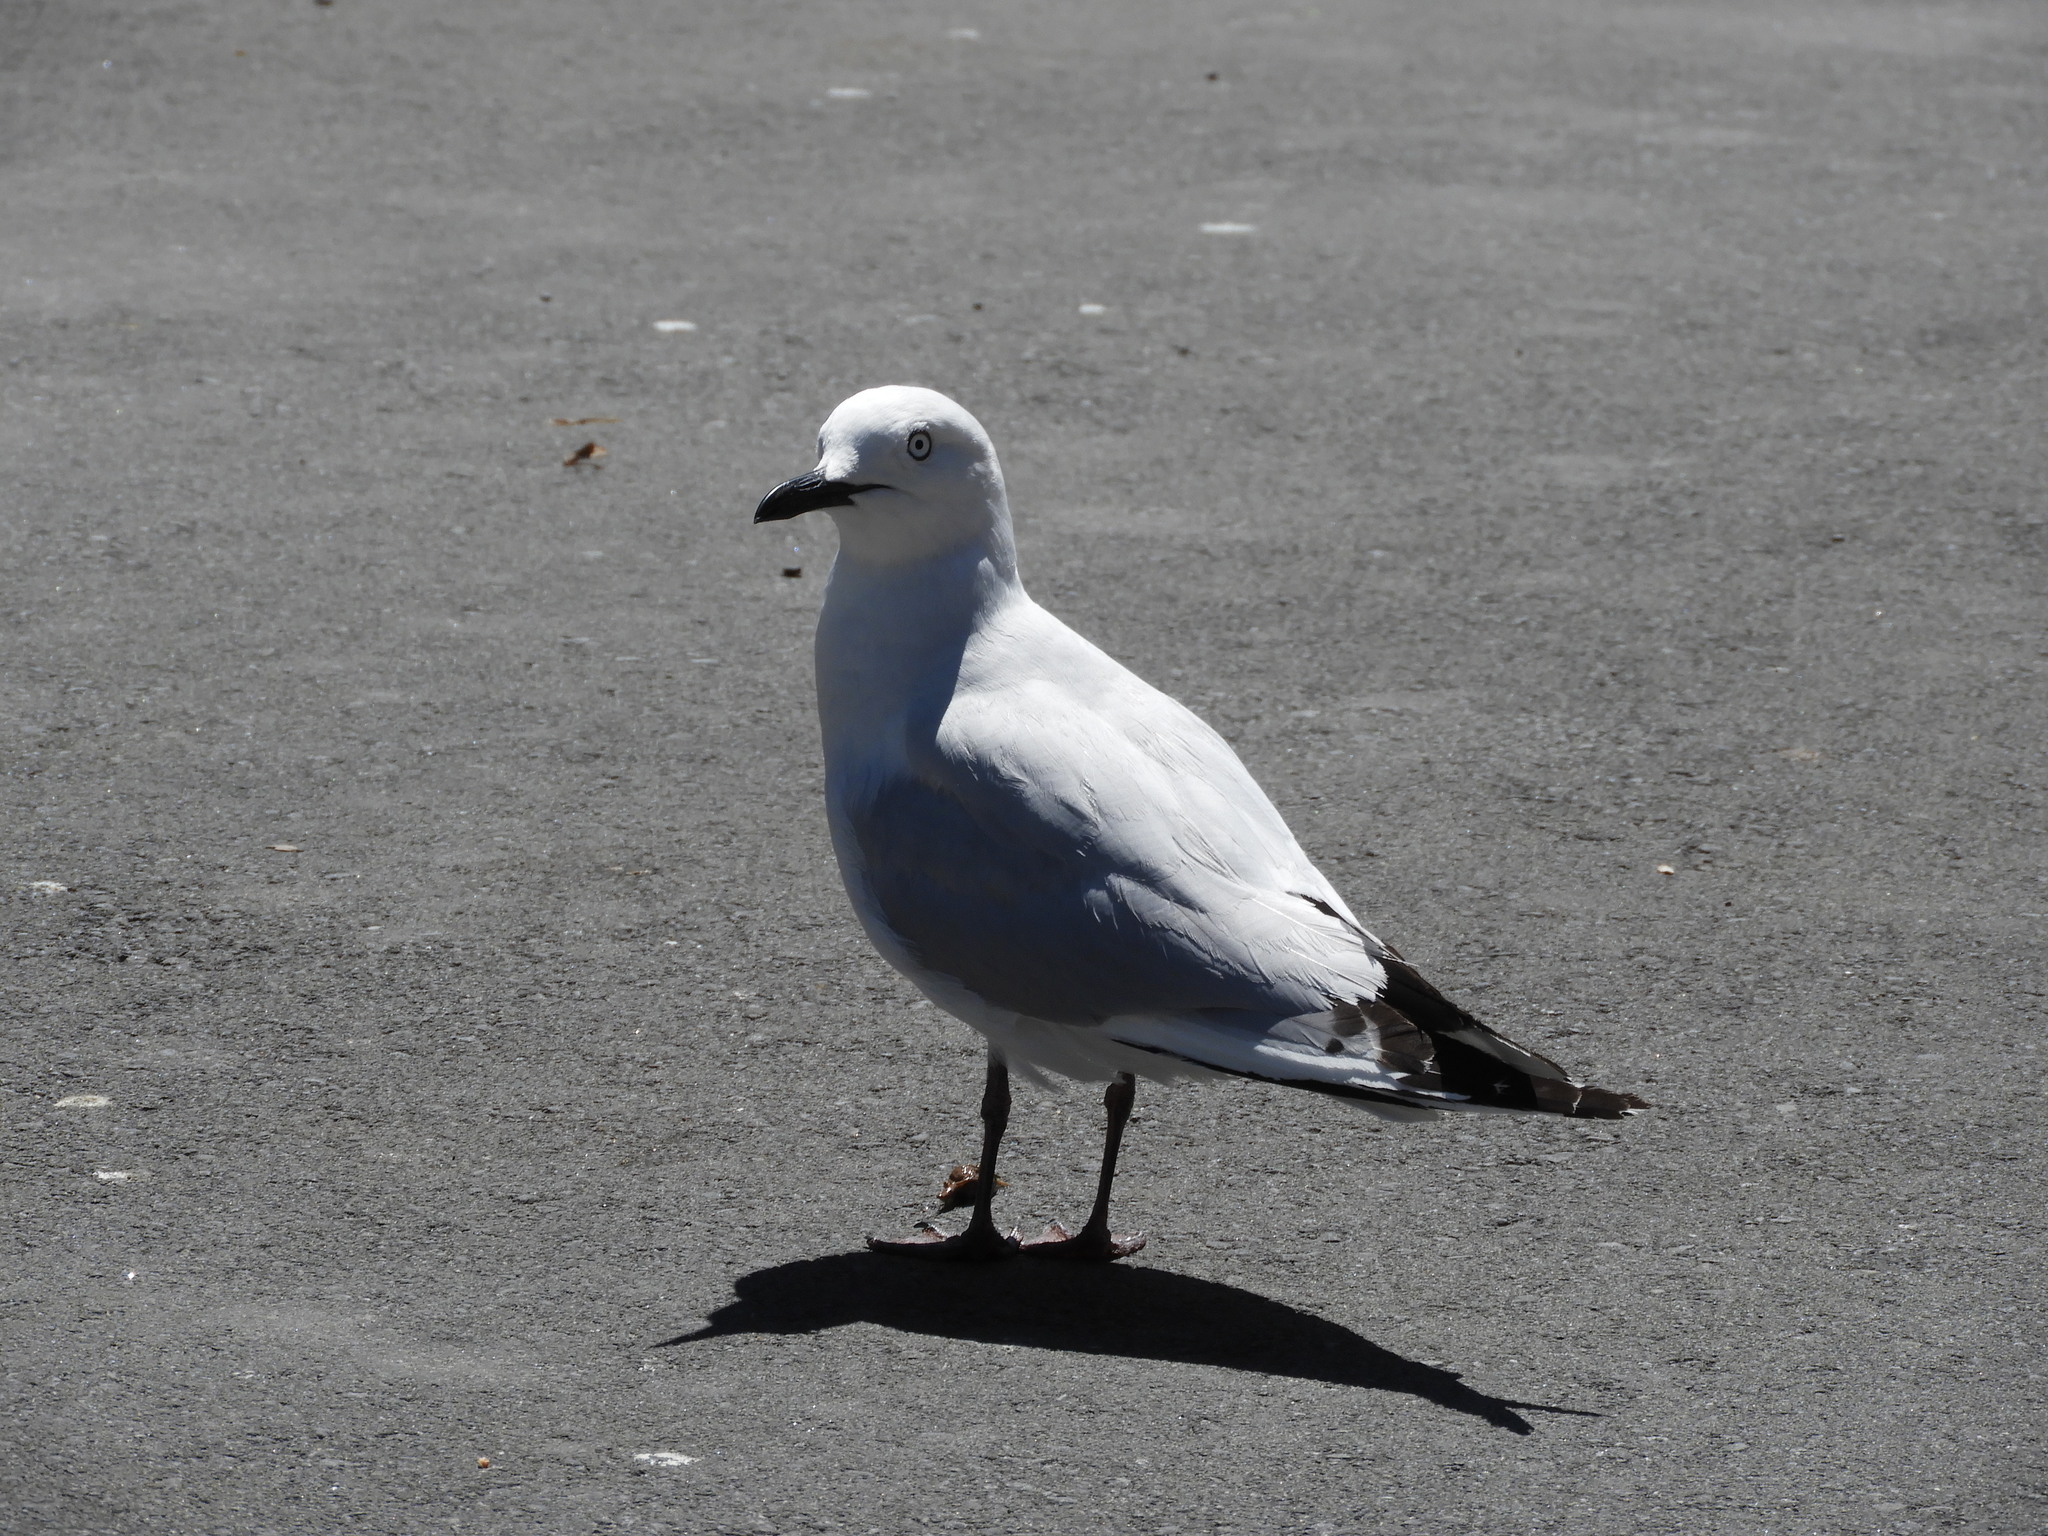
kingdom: Animalia
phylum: Chordata
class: Aves
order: Charadriiformes
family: Laridae
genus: Chroicocephalus
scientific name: Chroicocephalus bulleri
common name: Black-billed gull
